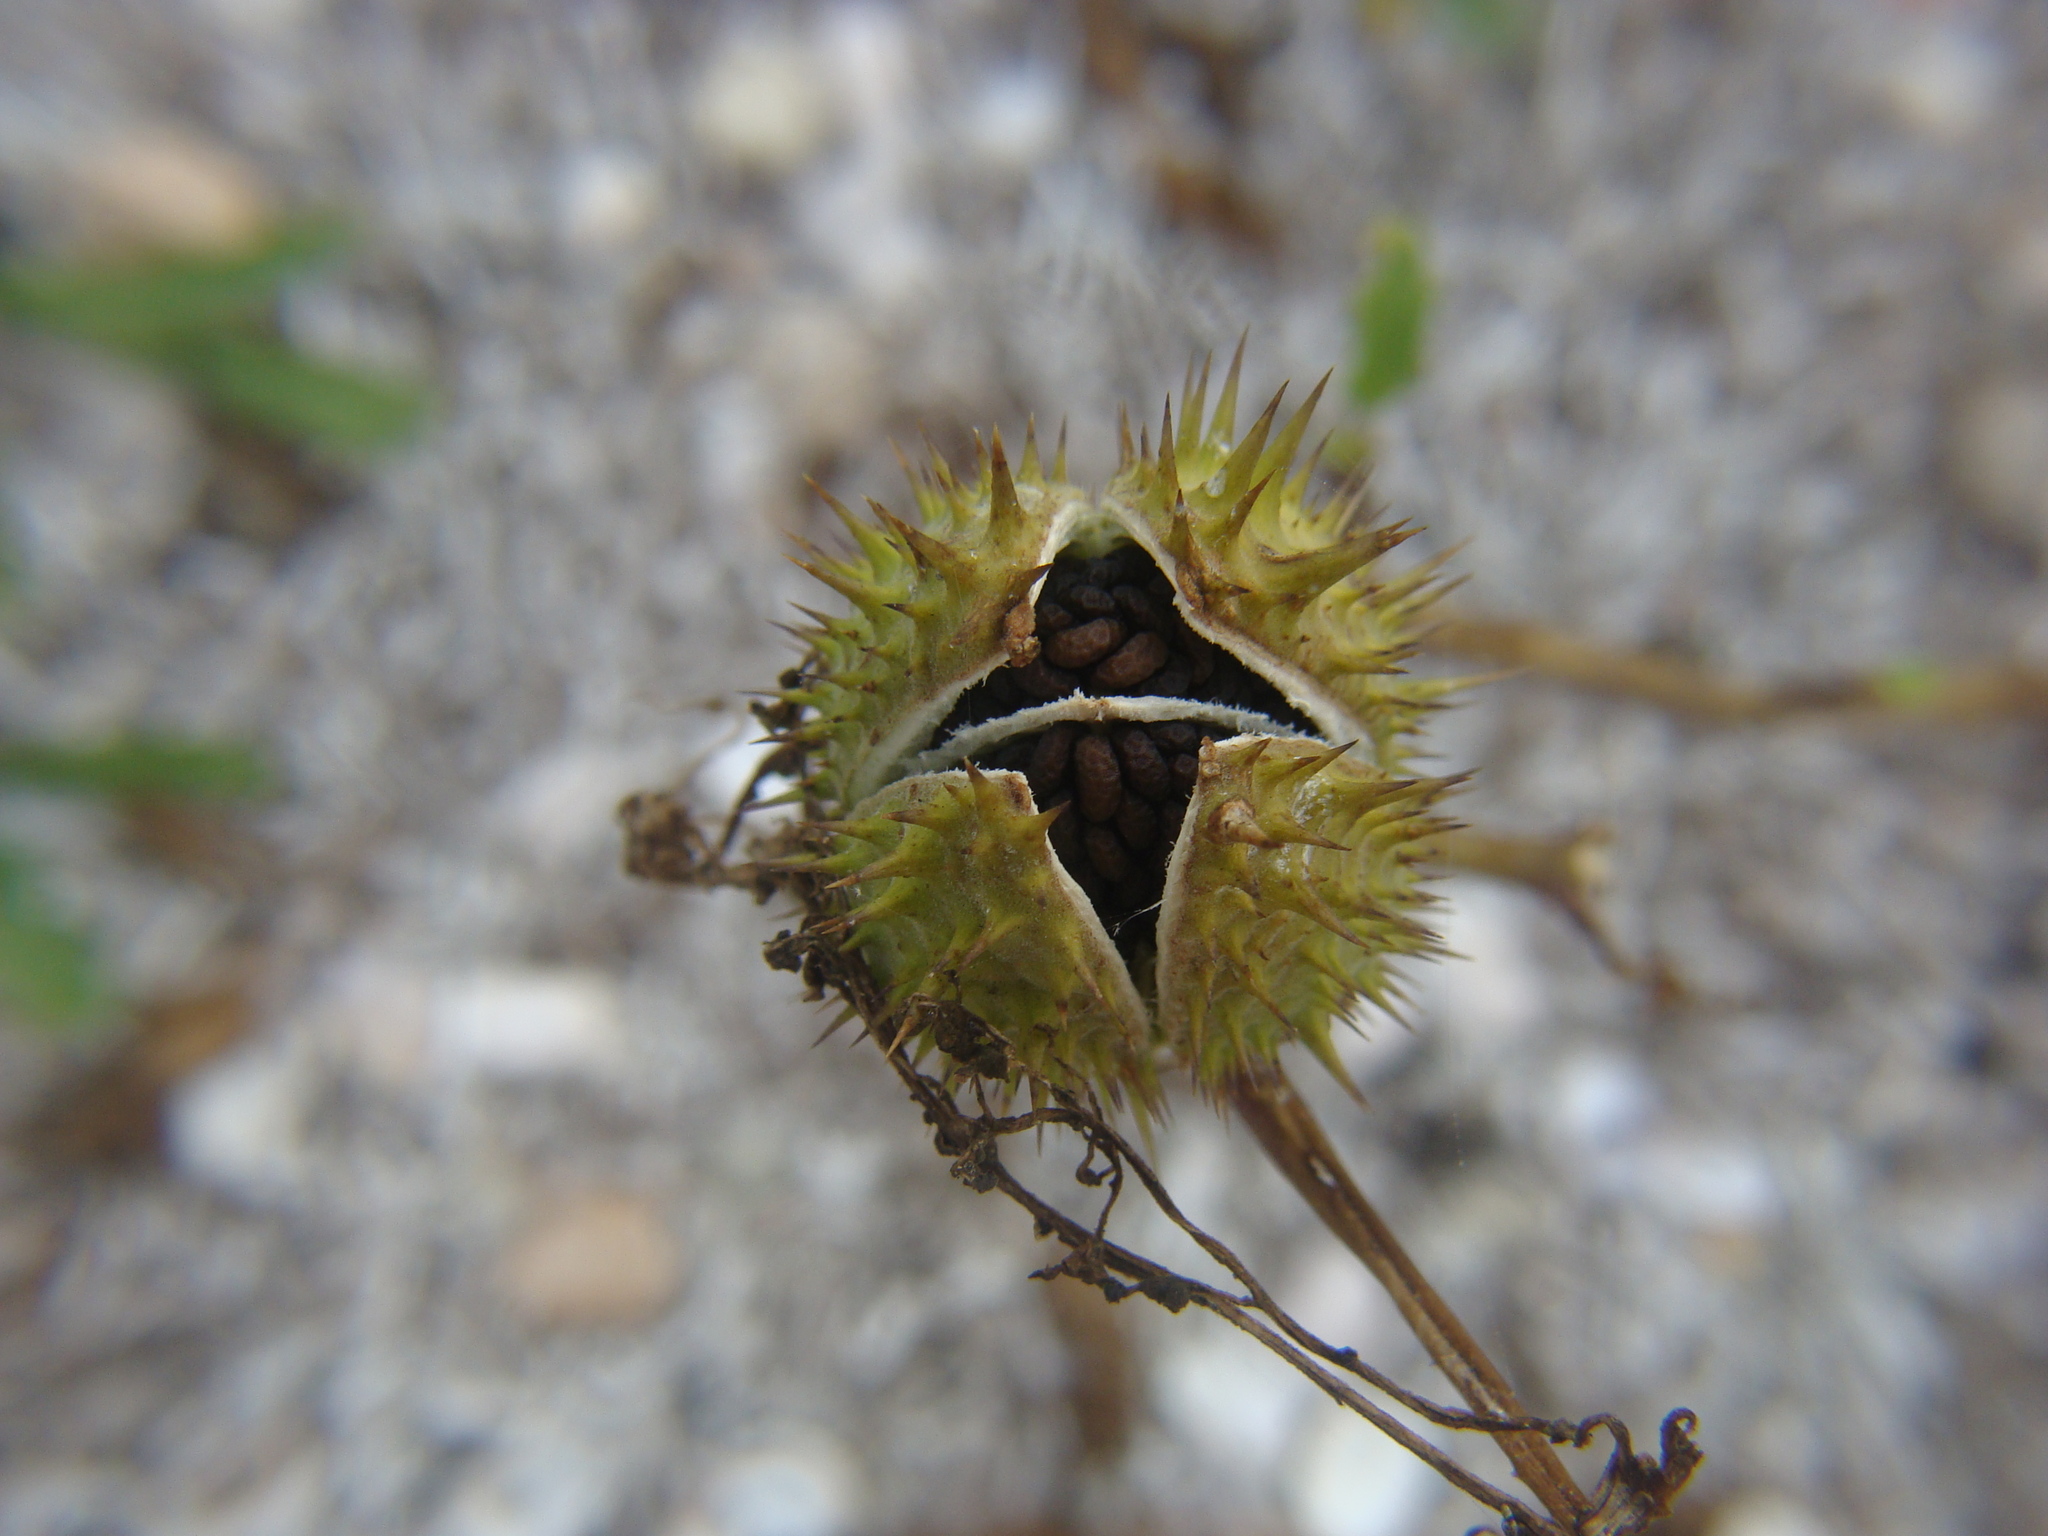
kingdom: Plantae
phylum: Tracheophyta
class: Magnoliopsida
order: Solanales
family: Solanaceae
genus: Datura
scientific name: Datura stramonium
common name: Thorn-apple
